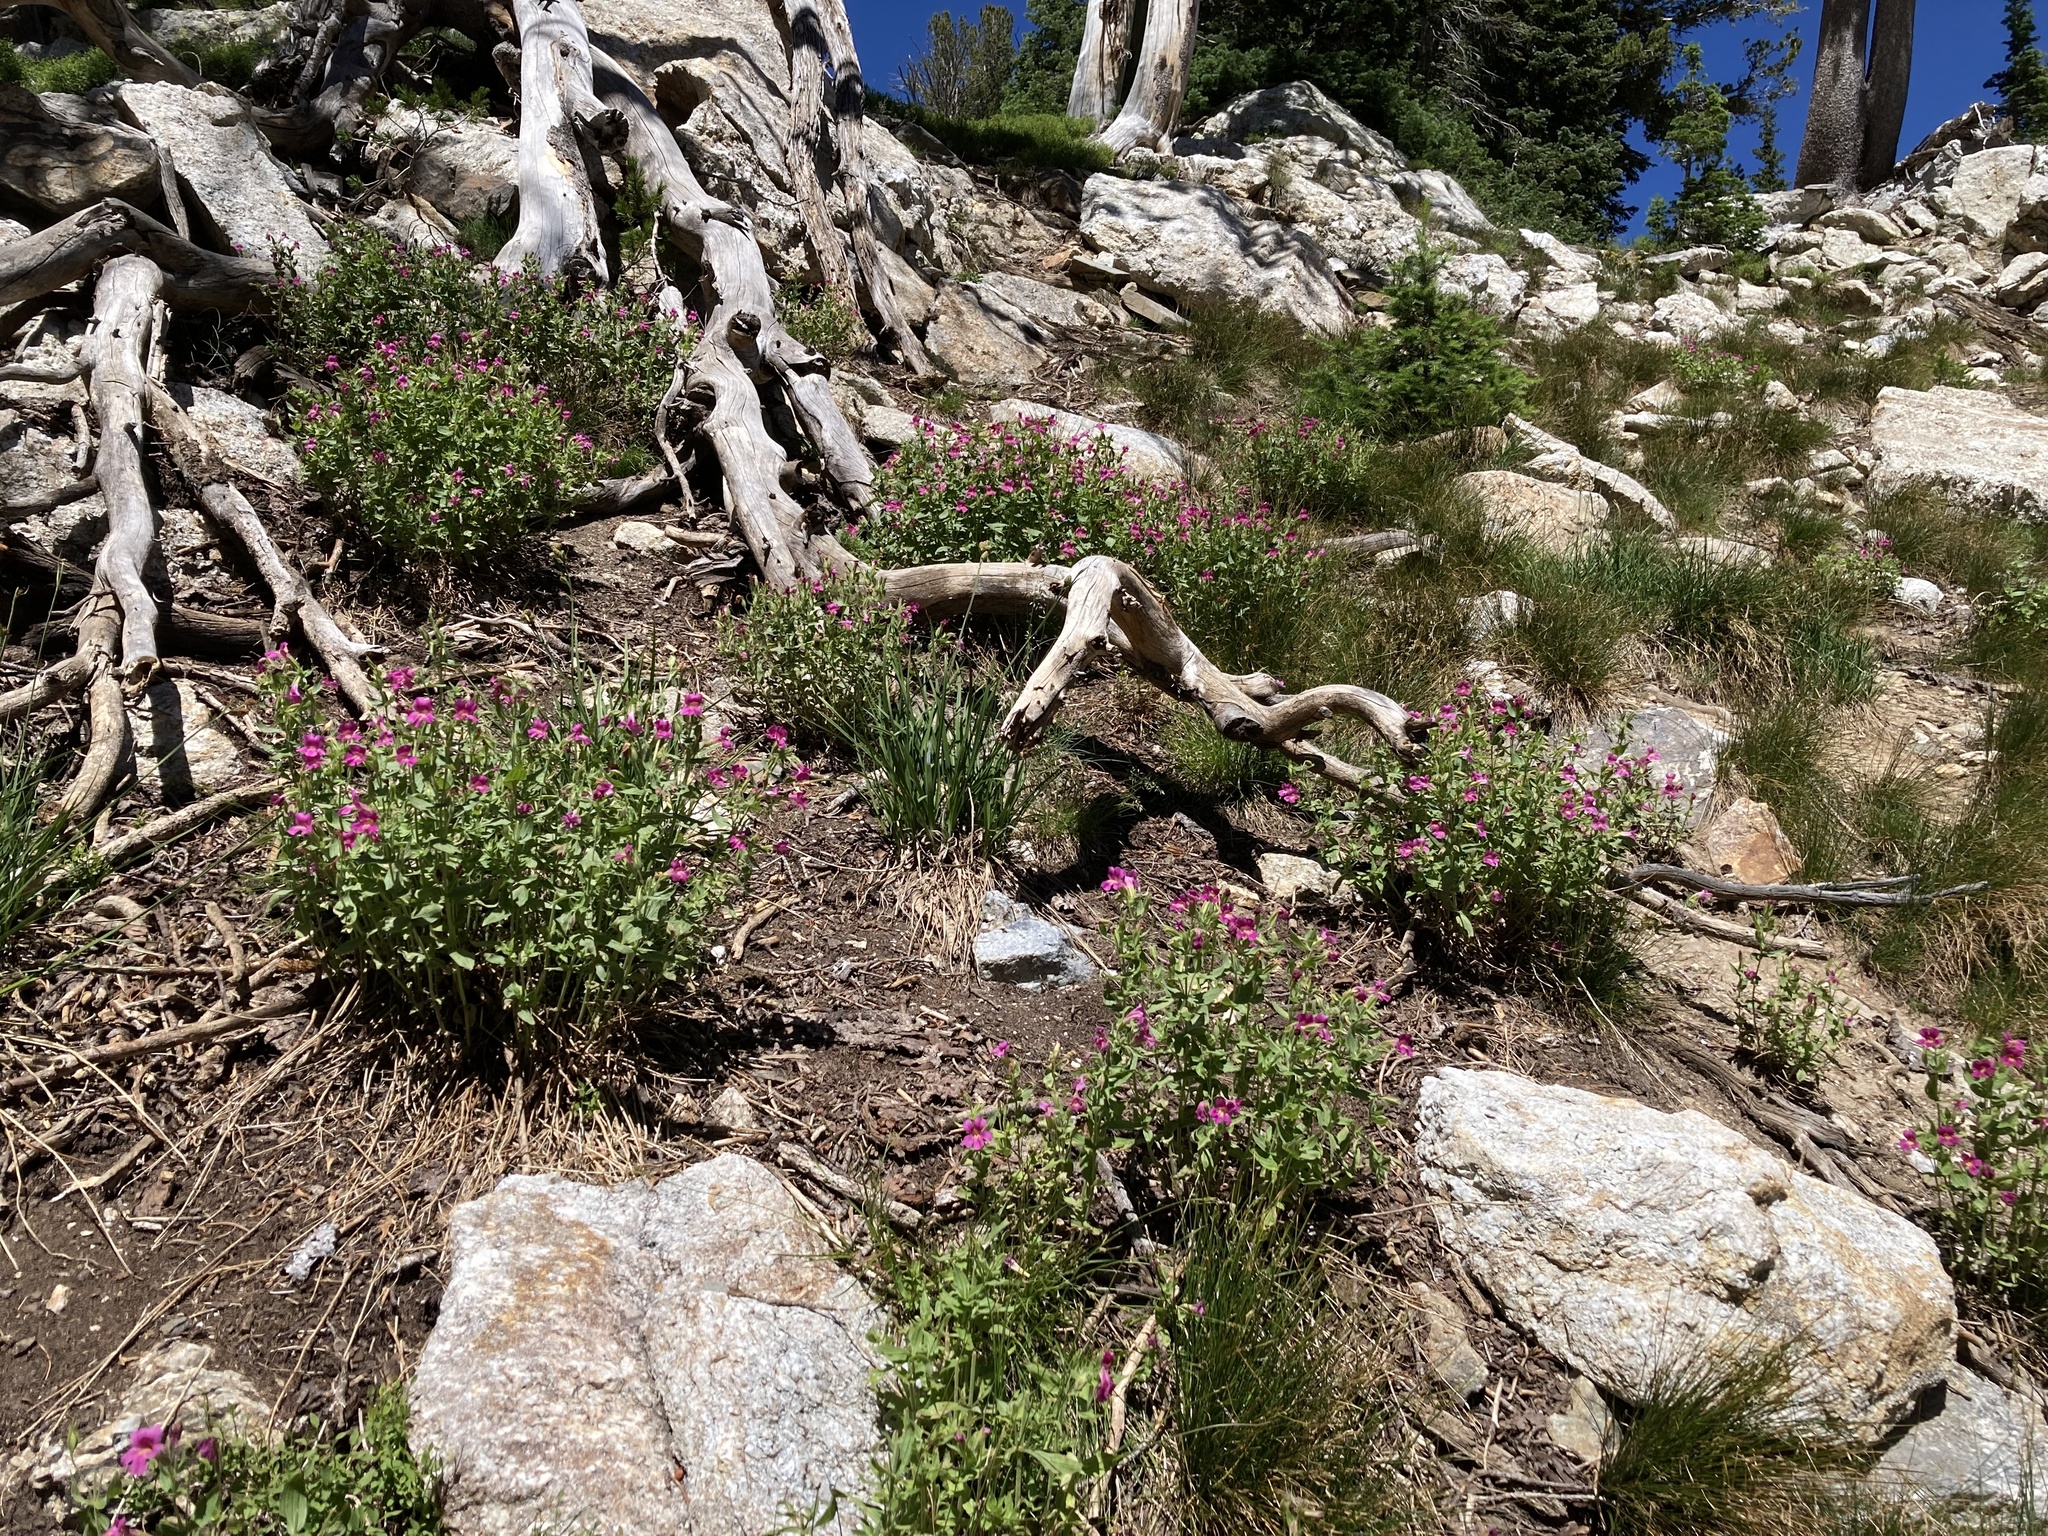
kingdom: Plantae
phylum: Tracheophyta
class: Magnoliopsida
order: Lamiales
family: Phrymaceae
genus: Erythranthe
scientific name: Erythranthe lewisii
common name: Lewis's monkey-flower
